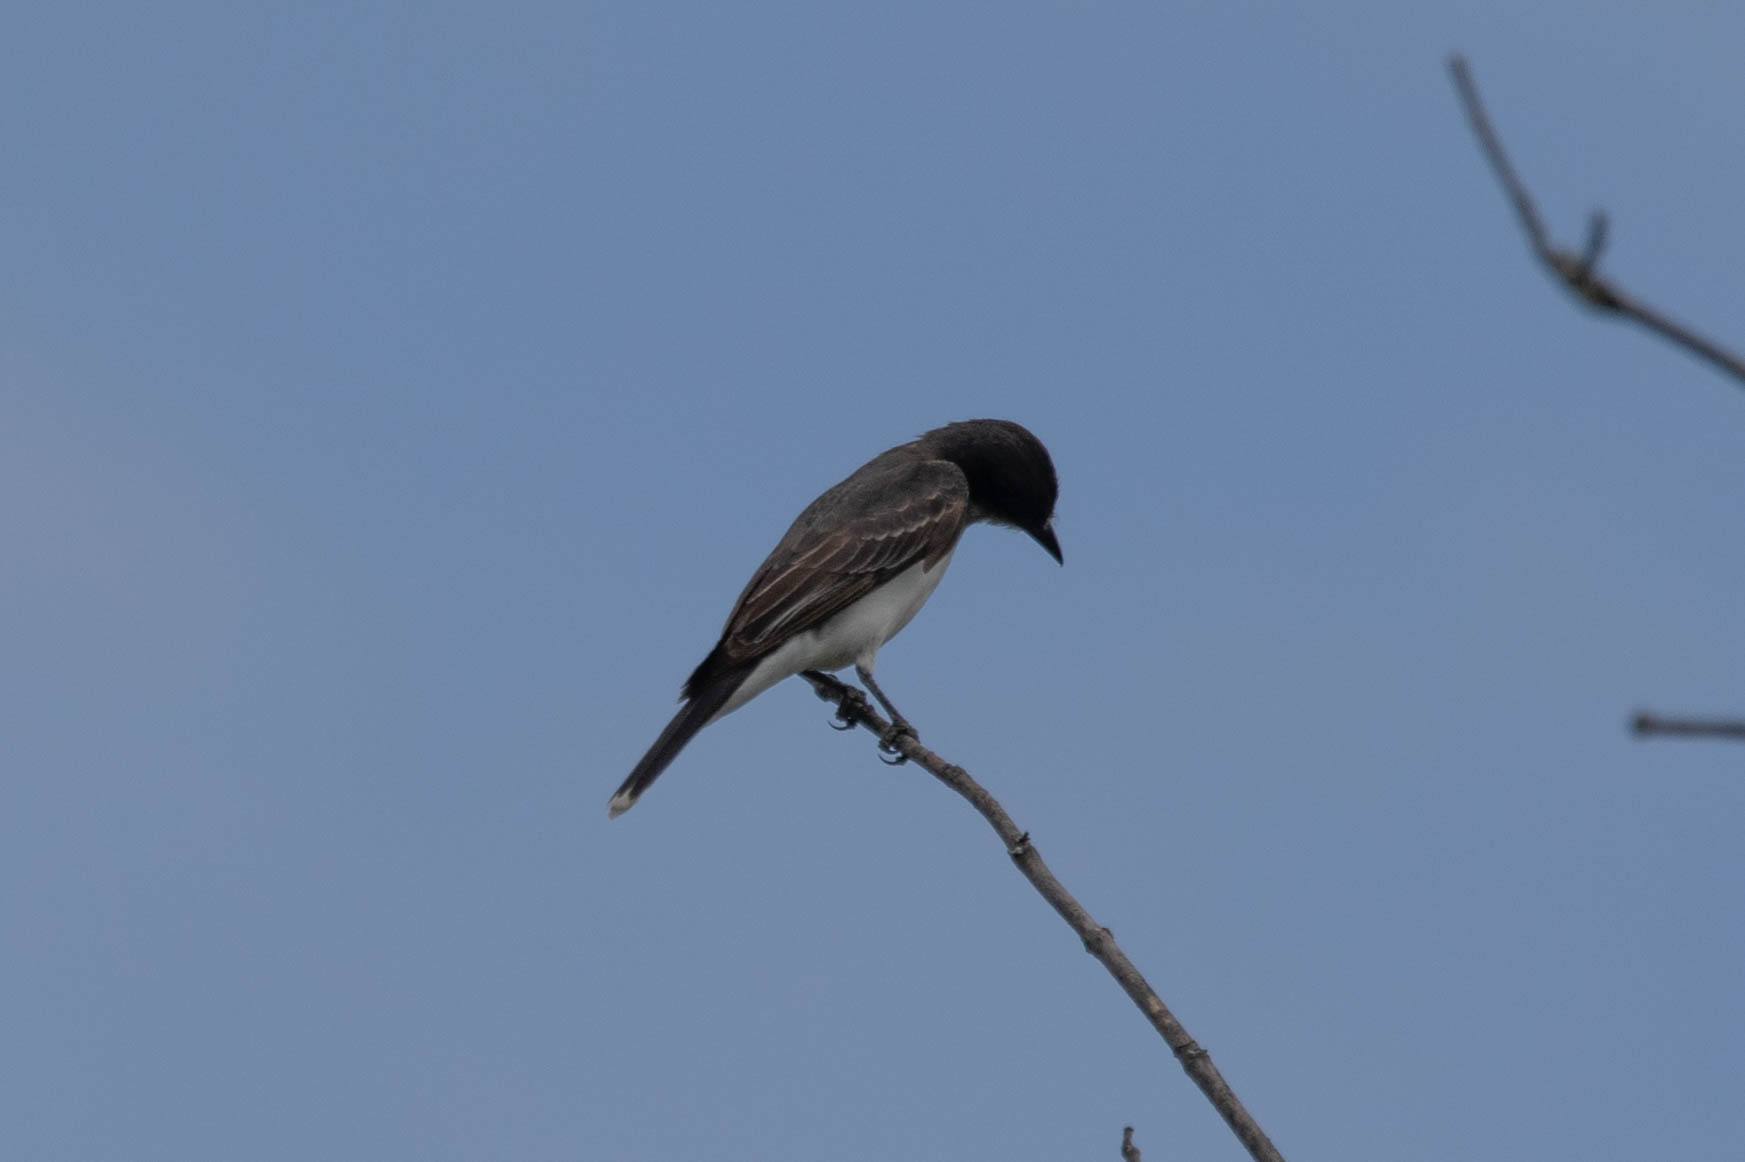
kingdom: Animalia
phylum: Chordata
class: Aves
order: Passeriformes
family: Tyrannidae
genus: Tyrannus
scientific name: Tyrannus tyrannus
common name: Eastern kingbird
